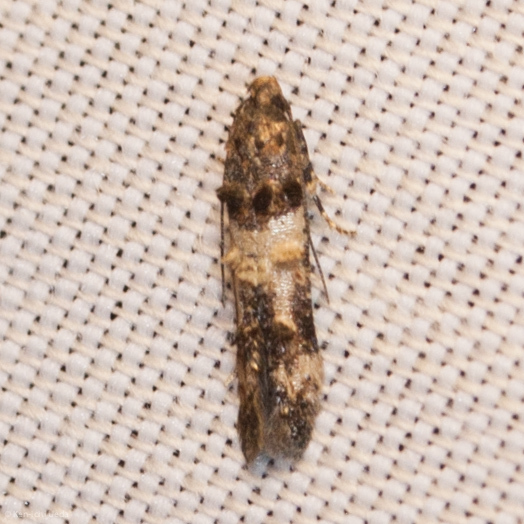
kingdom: Animalia
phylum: Arthropoda
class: Insecta
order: Lepidoptera
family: Cosmopterigidae
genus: Walshia
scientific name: Walshia miscecolorella
